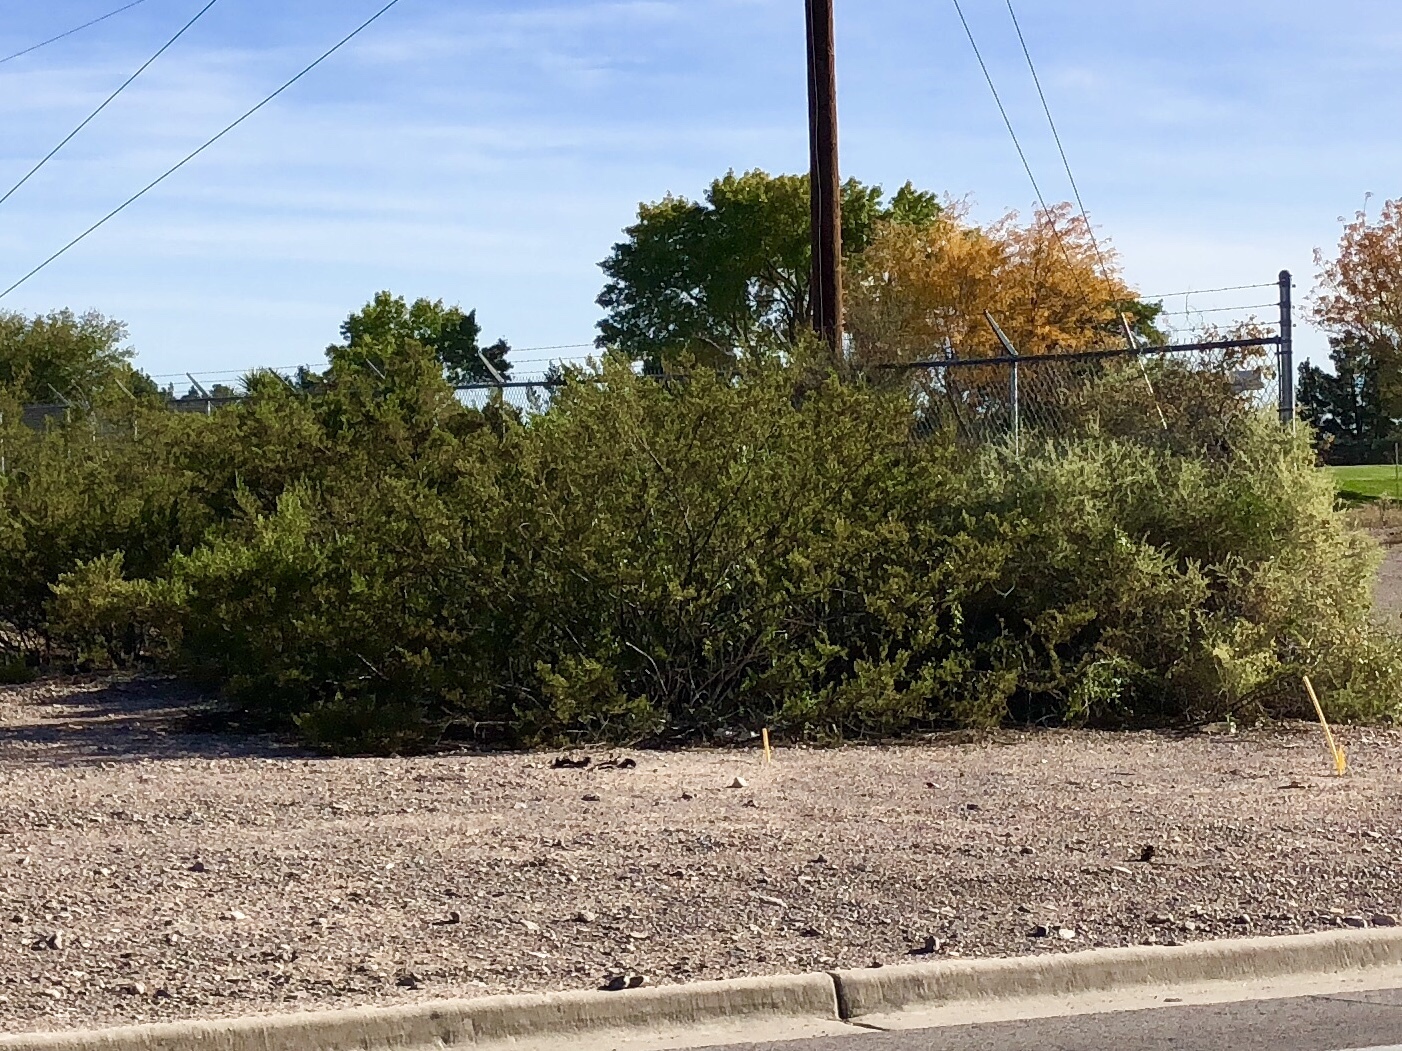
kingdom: Plantae
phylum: Tracheophyta
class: Magnoliopsida
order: Zygophyllales
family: Zygophyllaceae
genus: Larrea
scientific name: Larrea tridentata
